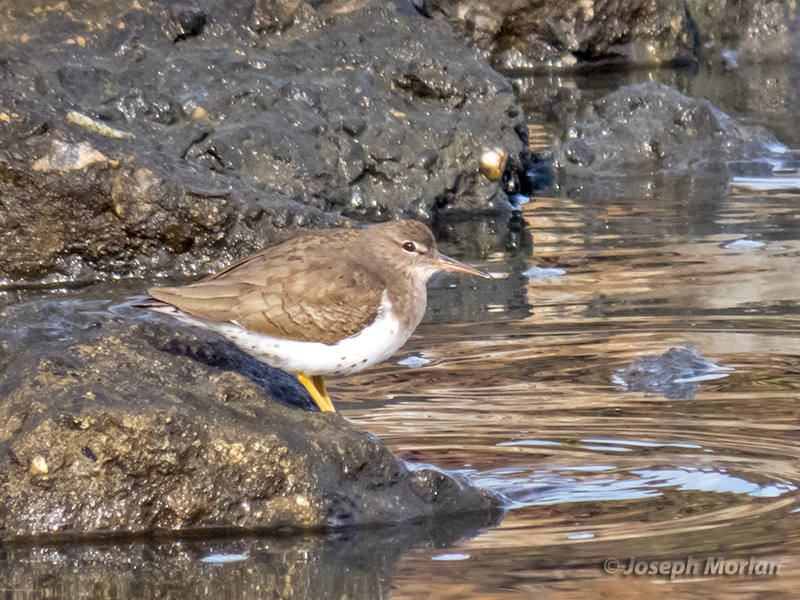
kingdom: Animalia
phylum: Chordata
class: Aves
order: Charadriiformes
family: Scolopacidae
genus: Actitis
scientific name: Actitis macularius
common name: Spotted sandpiper
